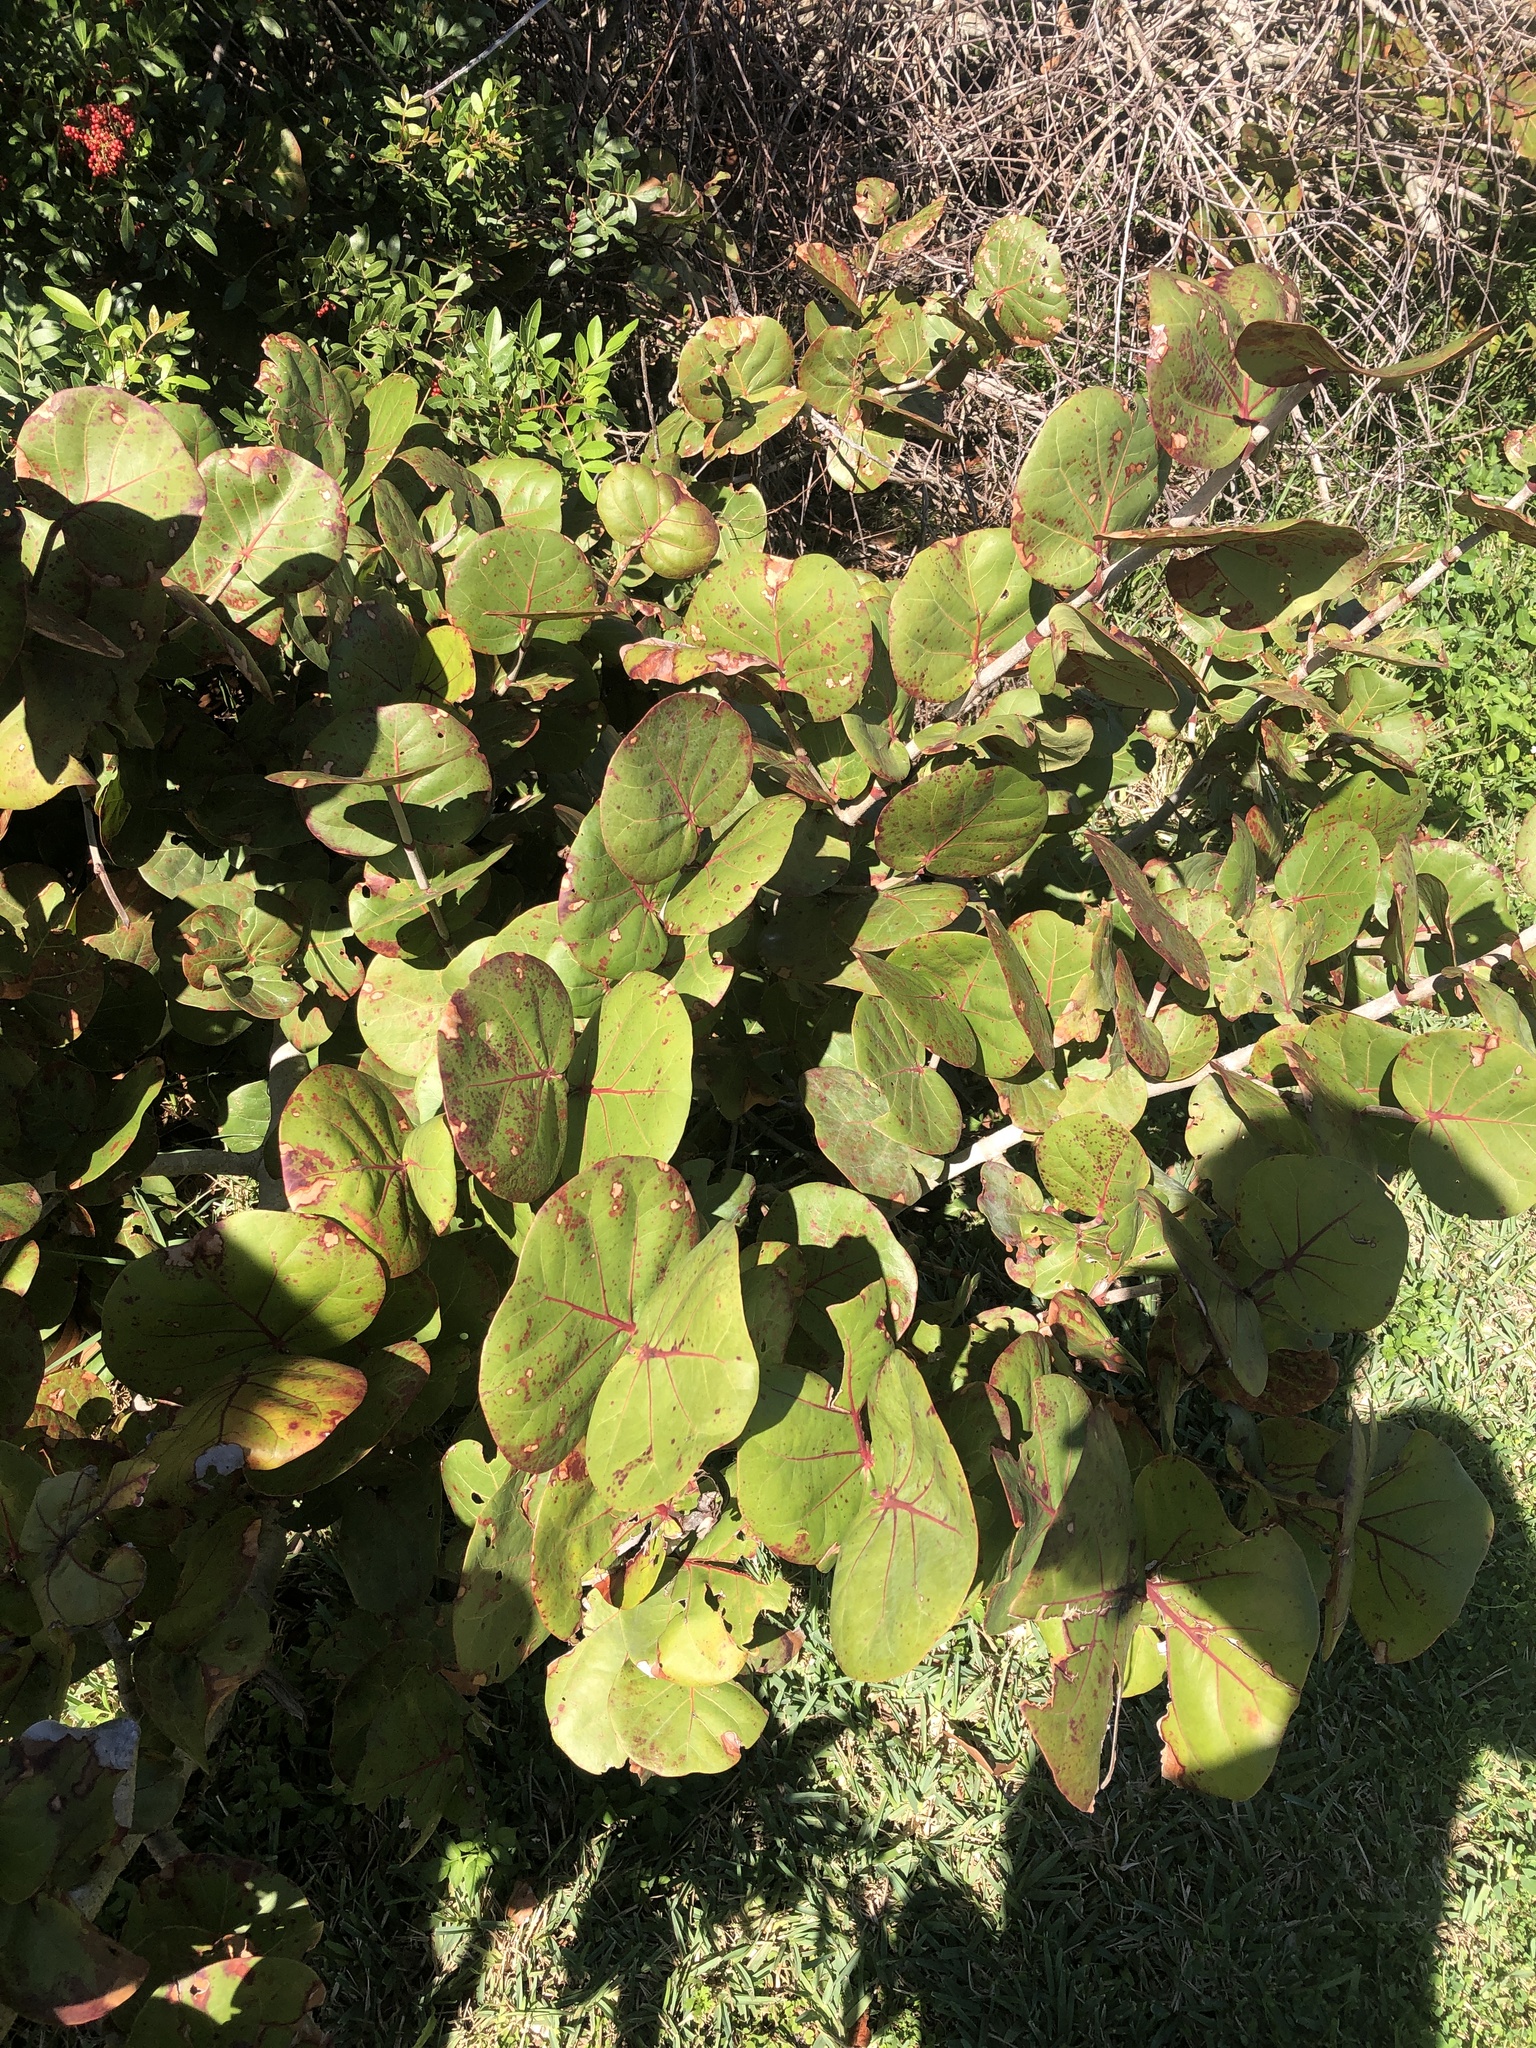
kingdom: Plantae
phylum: Tracheophyta
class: Magnoliopsida
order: Caryophyllales
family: Polygonaceae
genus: Coccoloba
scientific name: Coccoloba uvifera
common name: Seagrape
